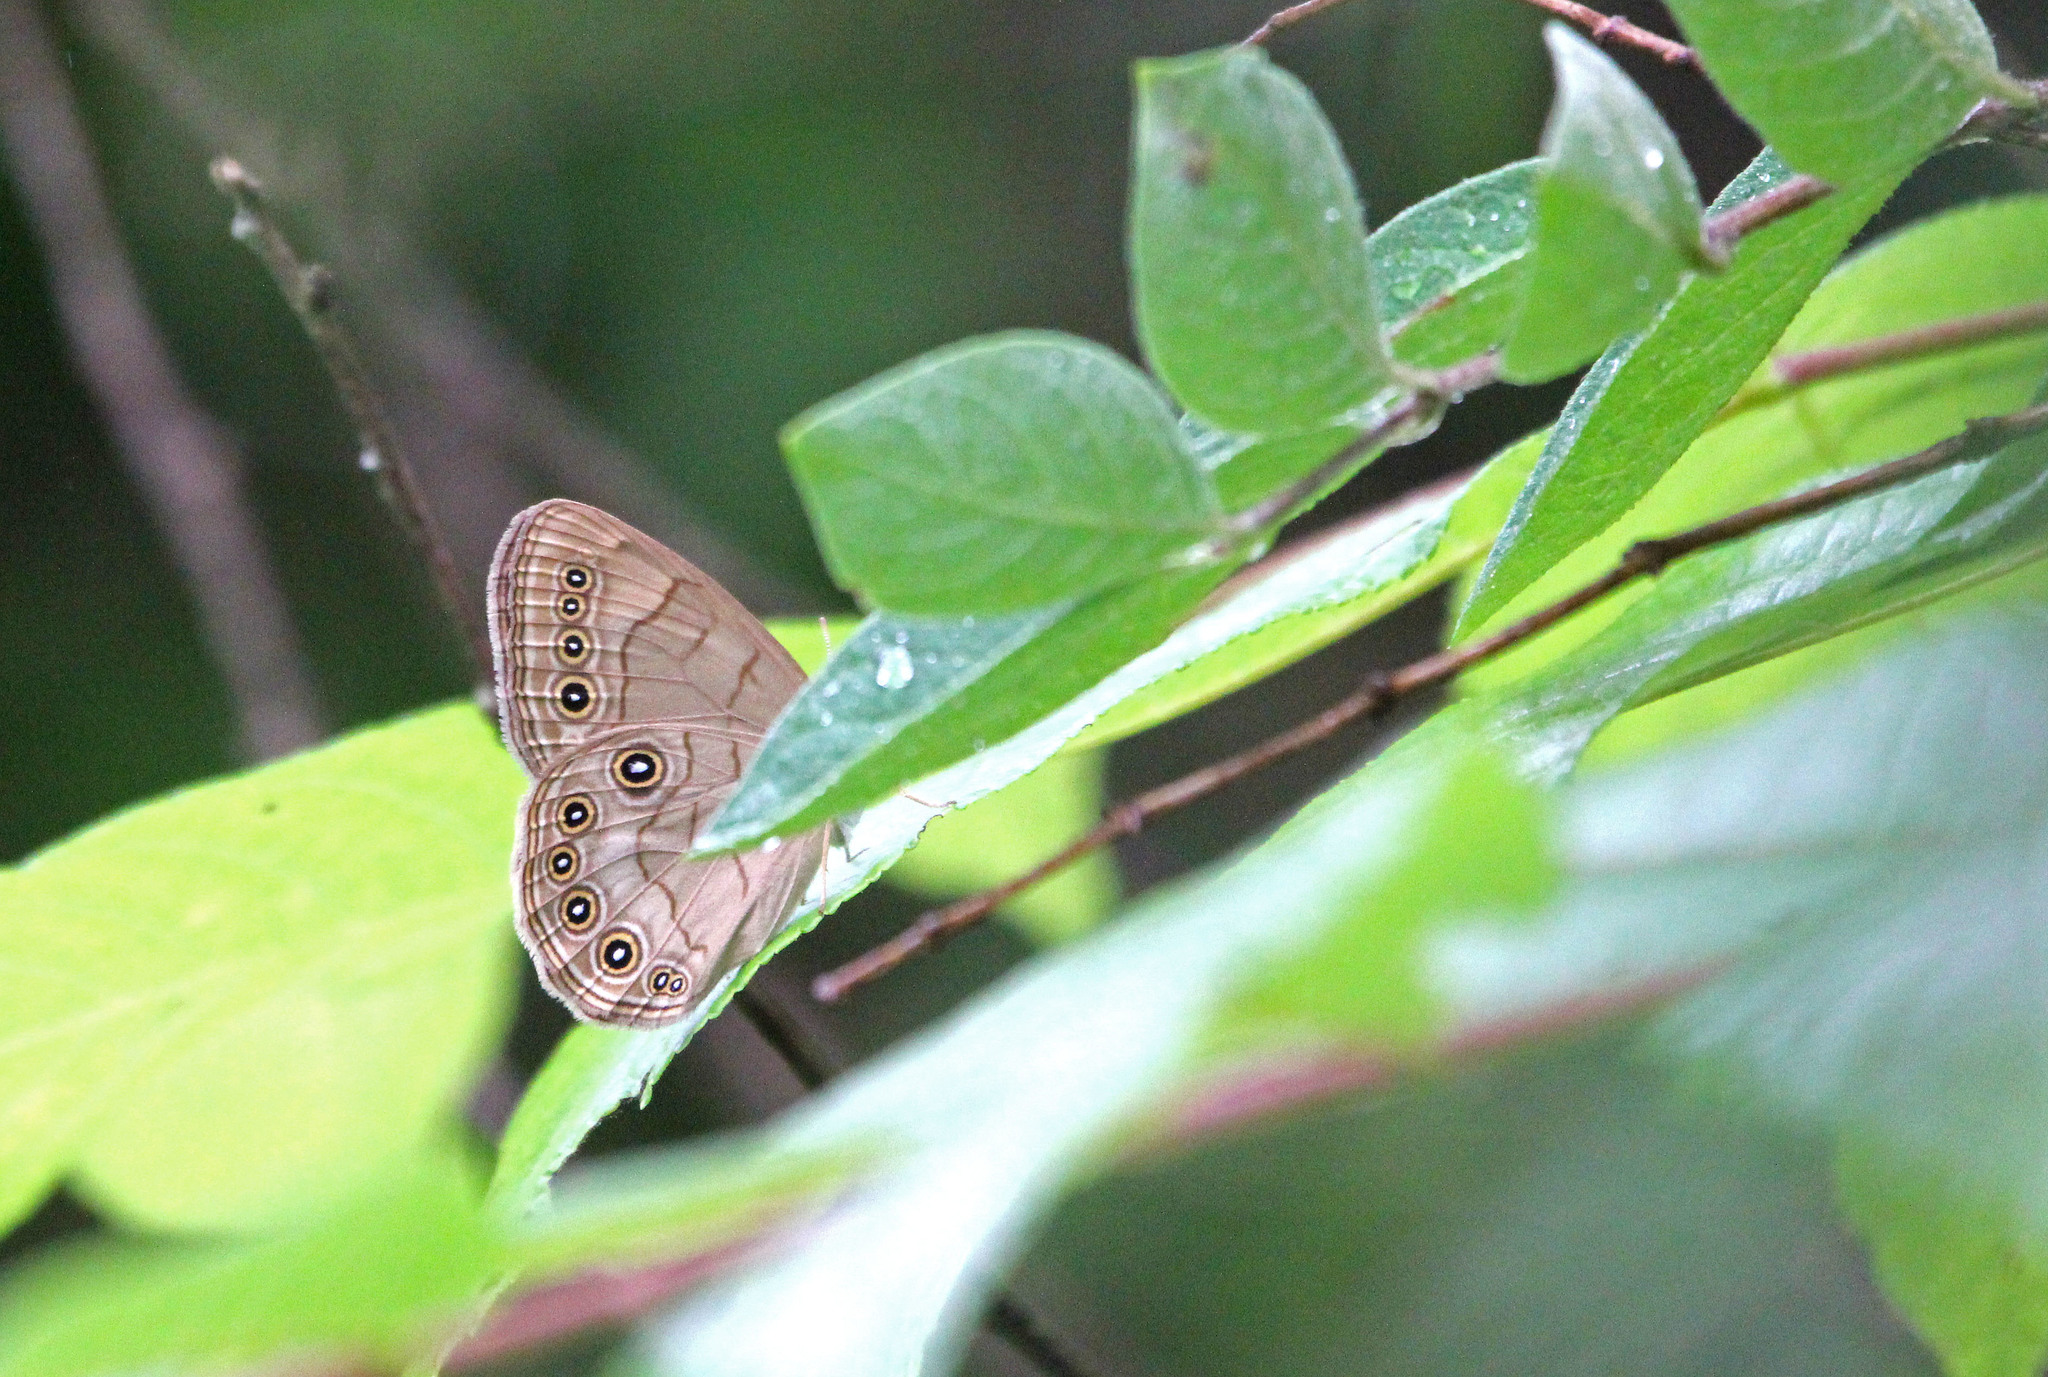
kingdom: Animalia
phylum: Arthropoda
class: Insecta
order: Lepidoptera
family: Nymphalidae
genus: Lethe
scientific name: Lethe eurydice
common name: Eyed brown
